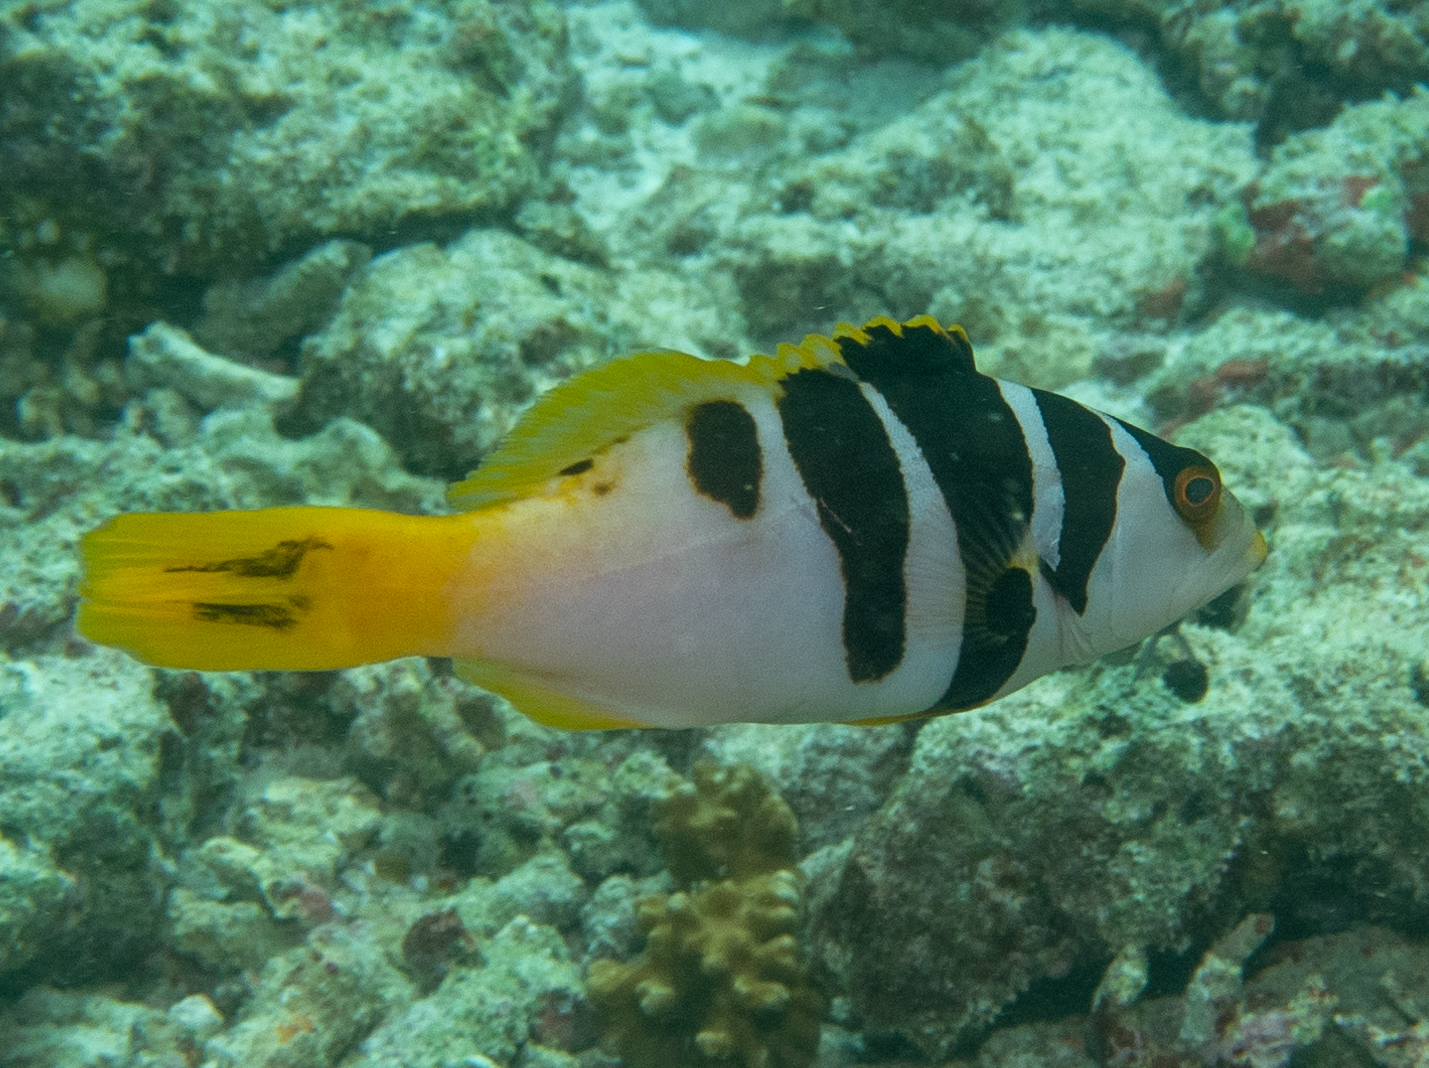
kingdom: Animalia
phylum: Chordata
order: Perciformes
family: Serranidae
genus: Plectropomus
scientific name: Plectropomus laevis
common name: Chinese footballer
